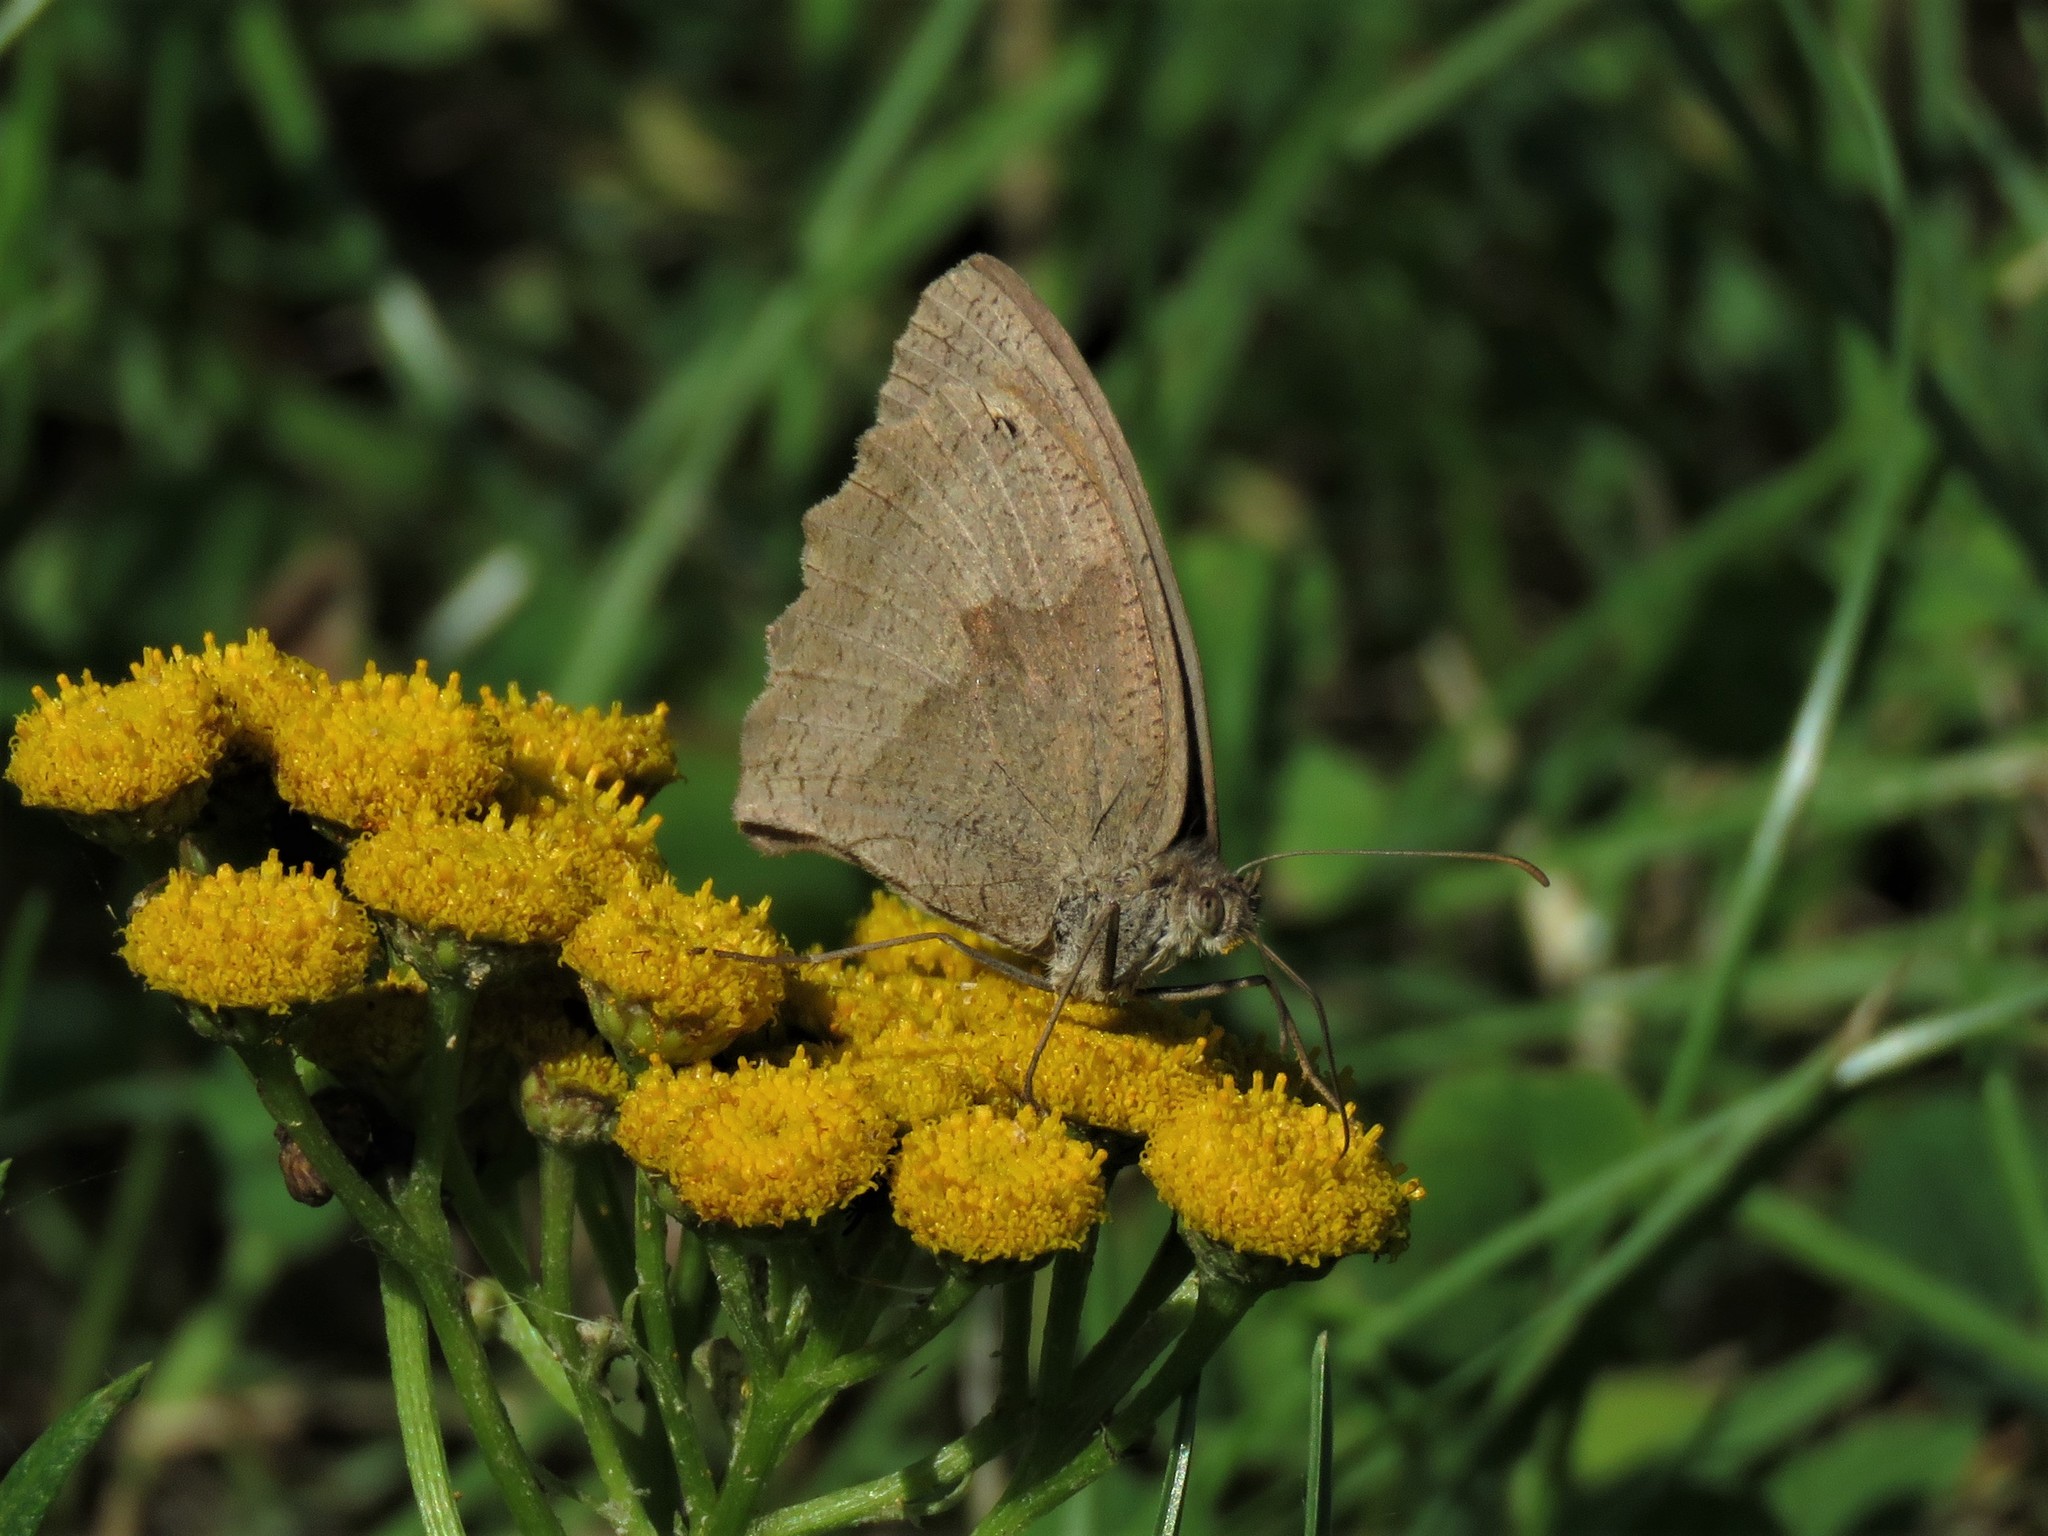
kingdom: Animalia
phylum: Arthropoda
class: Insecta
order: Lepidoptera
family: Nymphalidae
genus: Maniola
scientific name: Maniola jurtina
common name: Meadow brown
